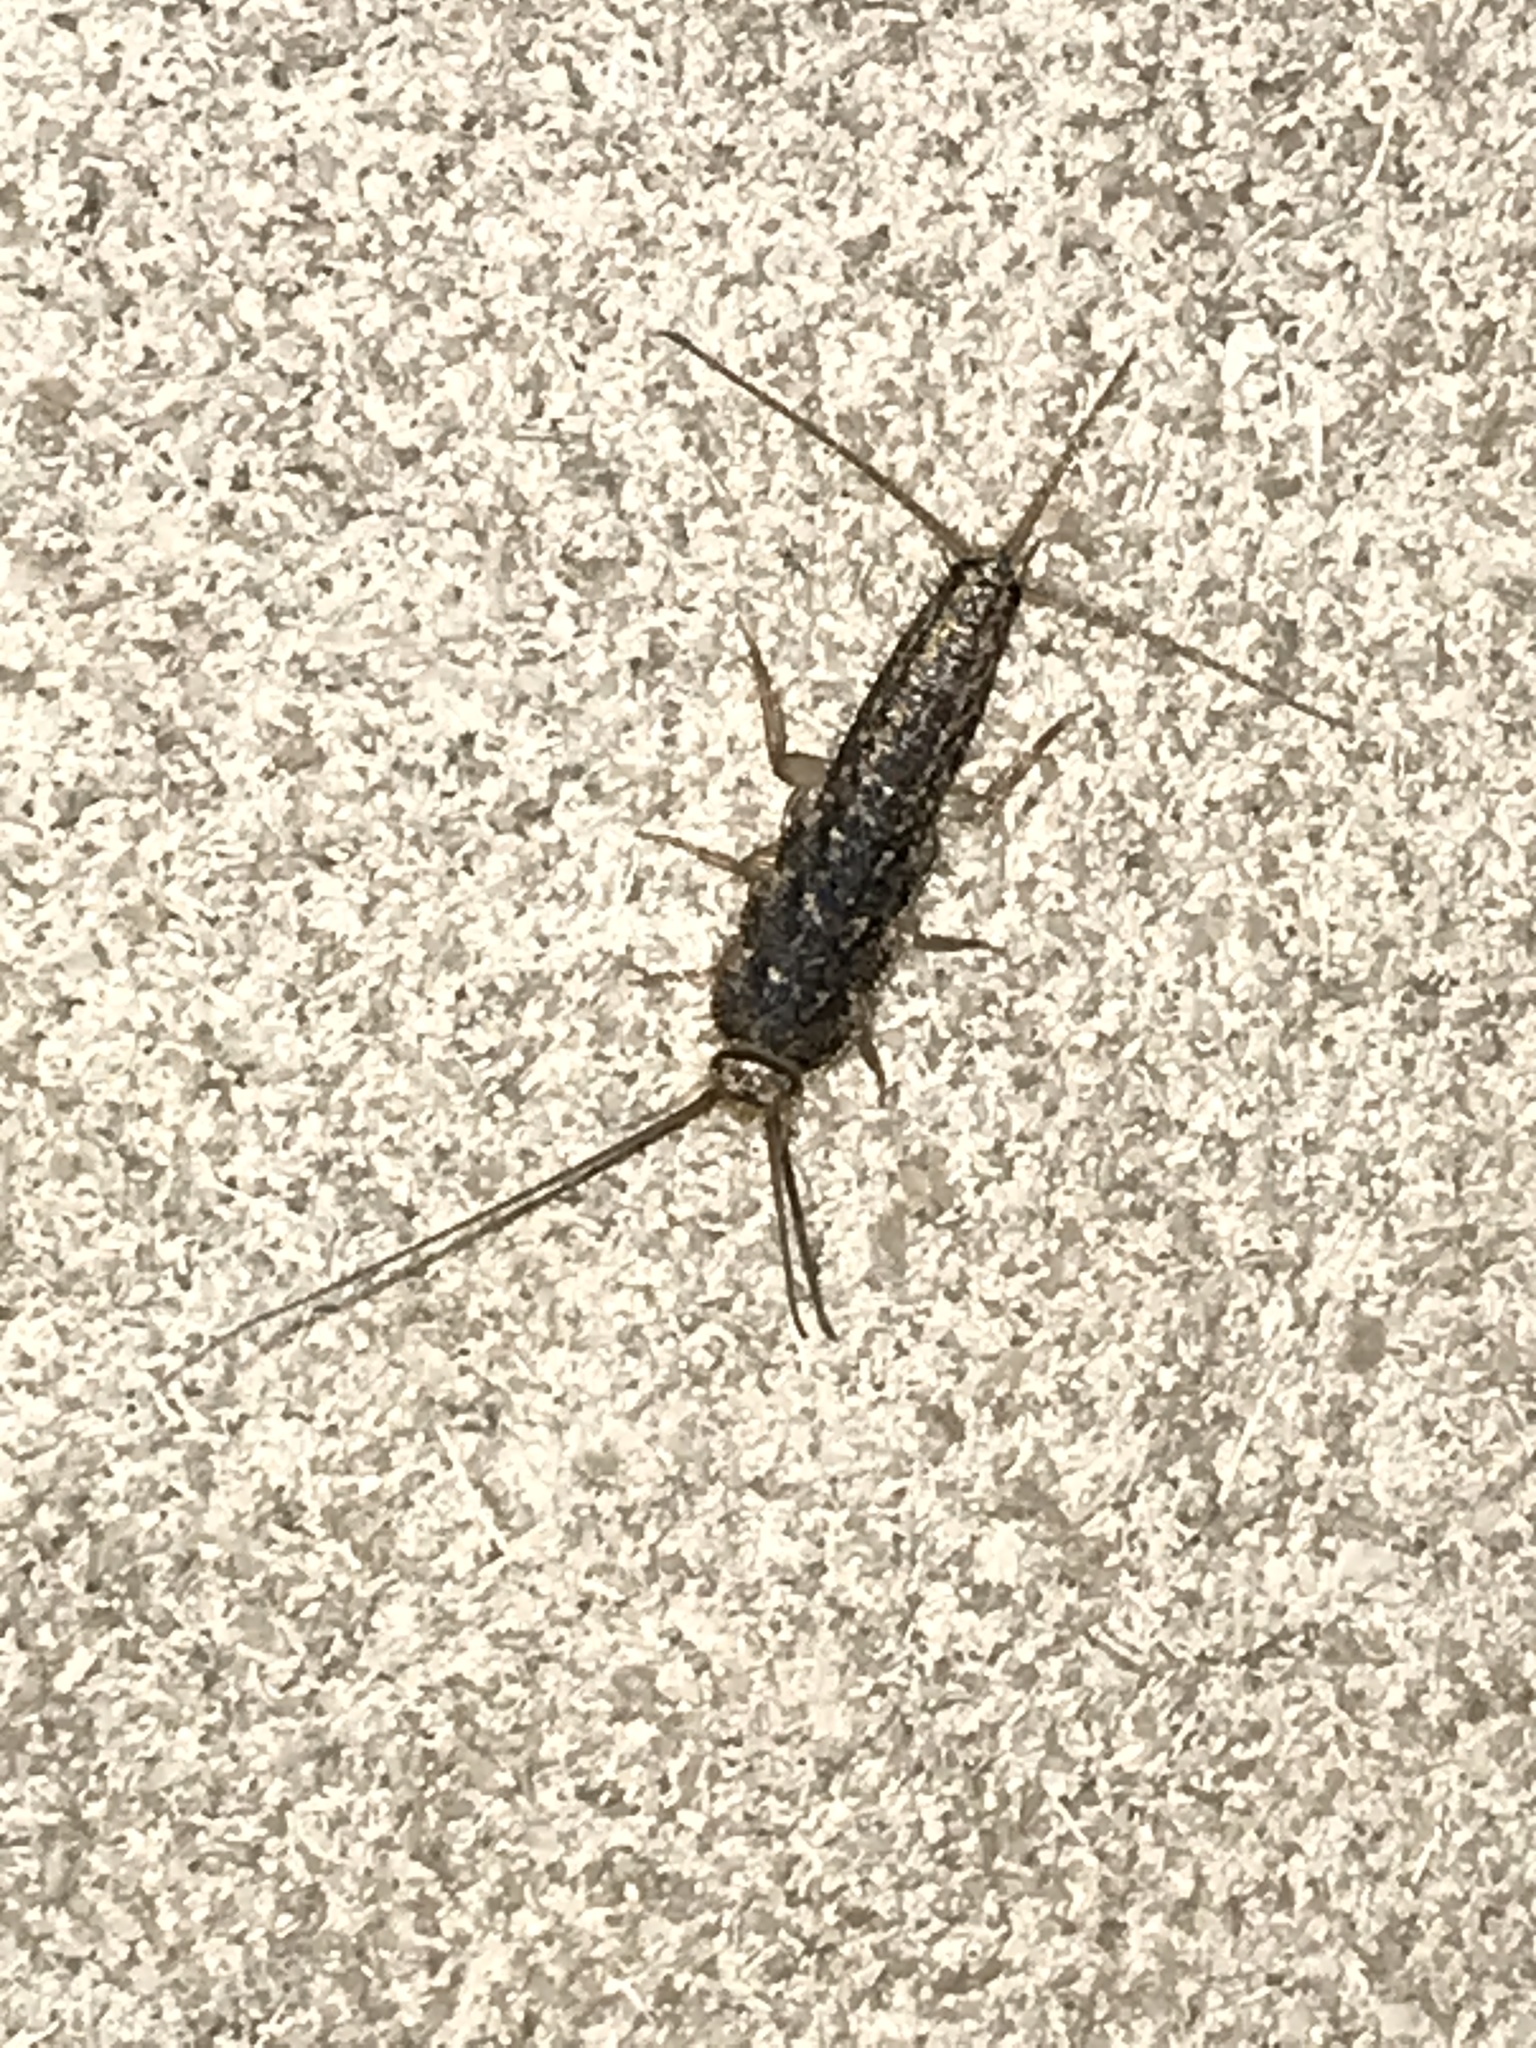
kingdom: Animalia
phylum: Arthropoda
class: Insecta
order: Zygentoma
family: Lepismatidae
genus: Ctenolepisma
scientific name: Ctenolepisma lineata
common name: Four-lined silverfish
